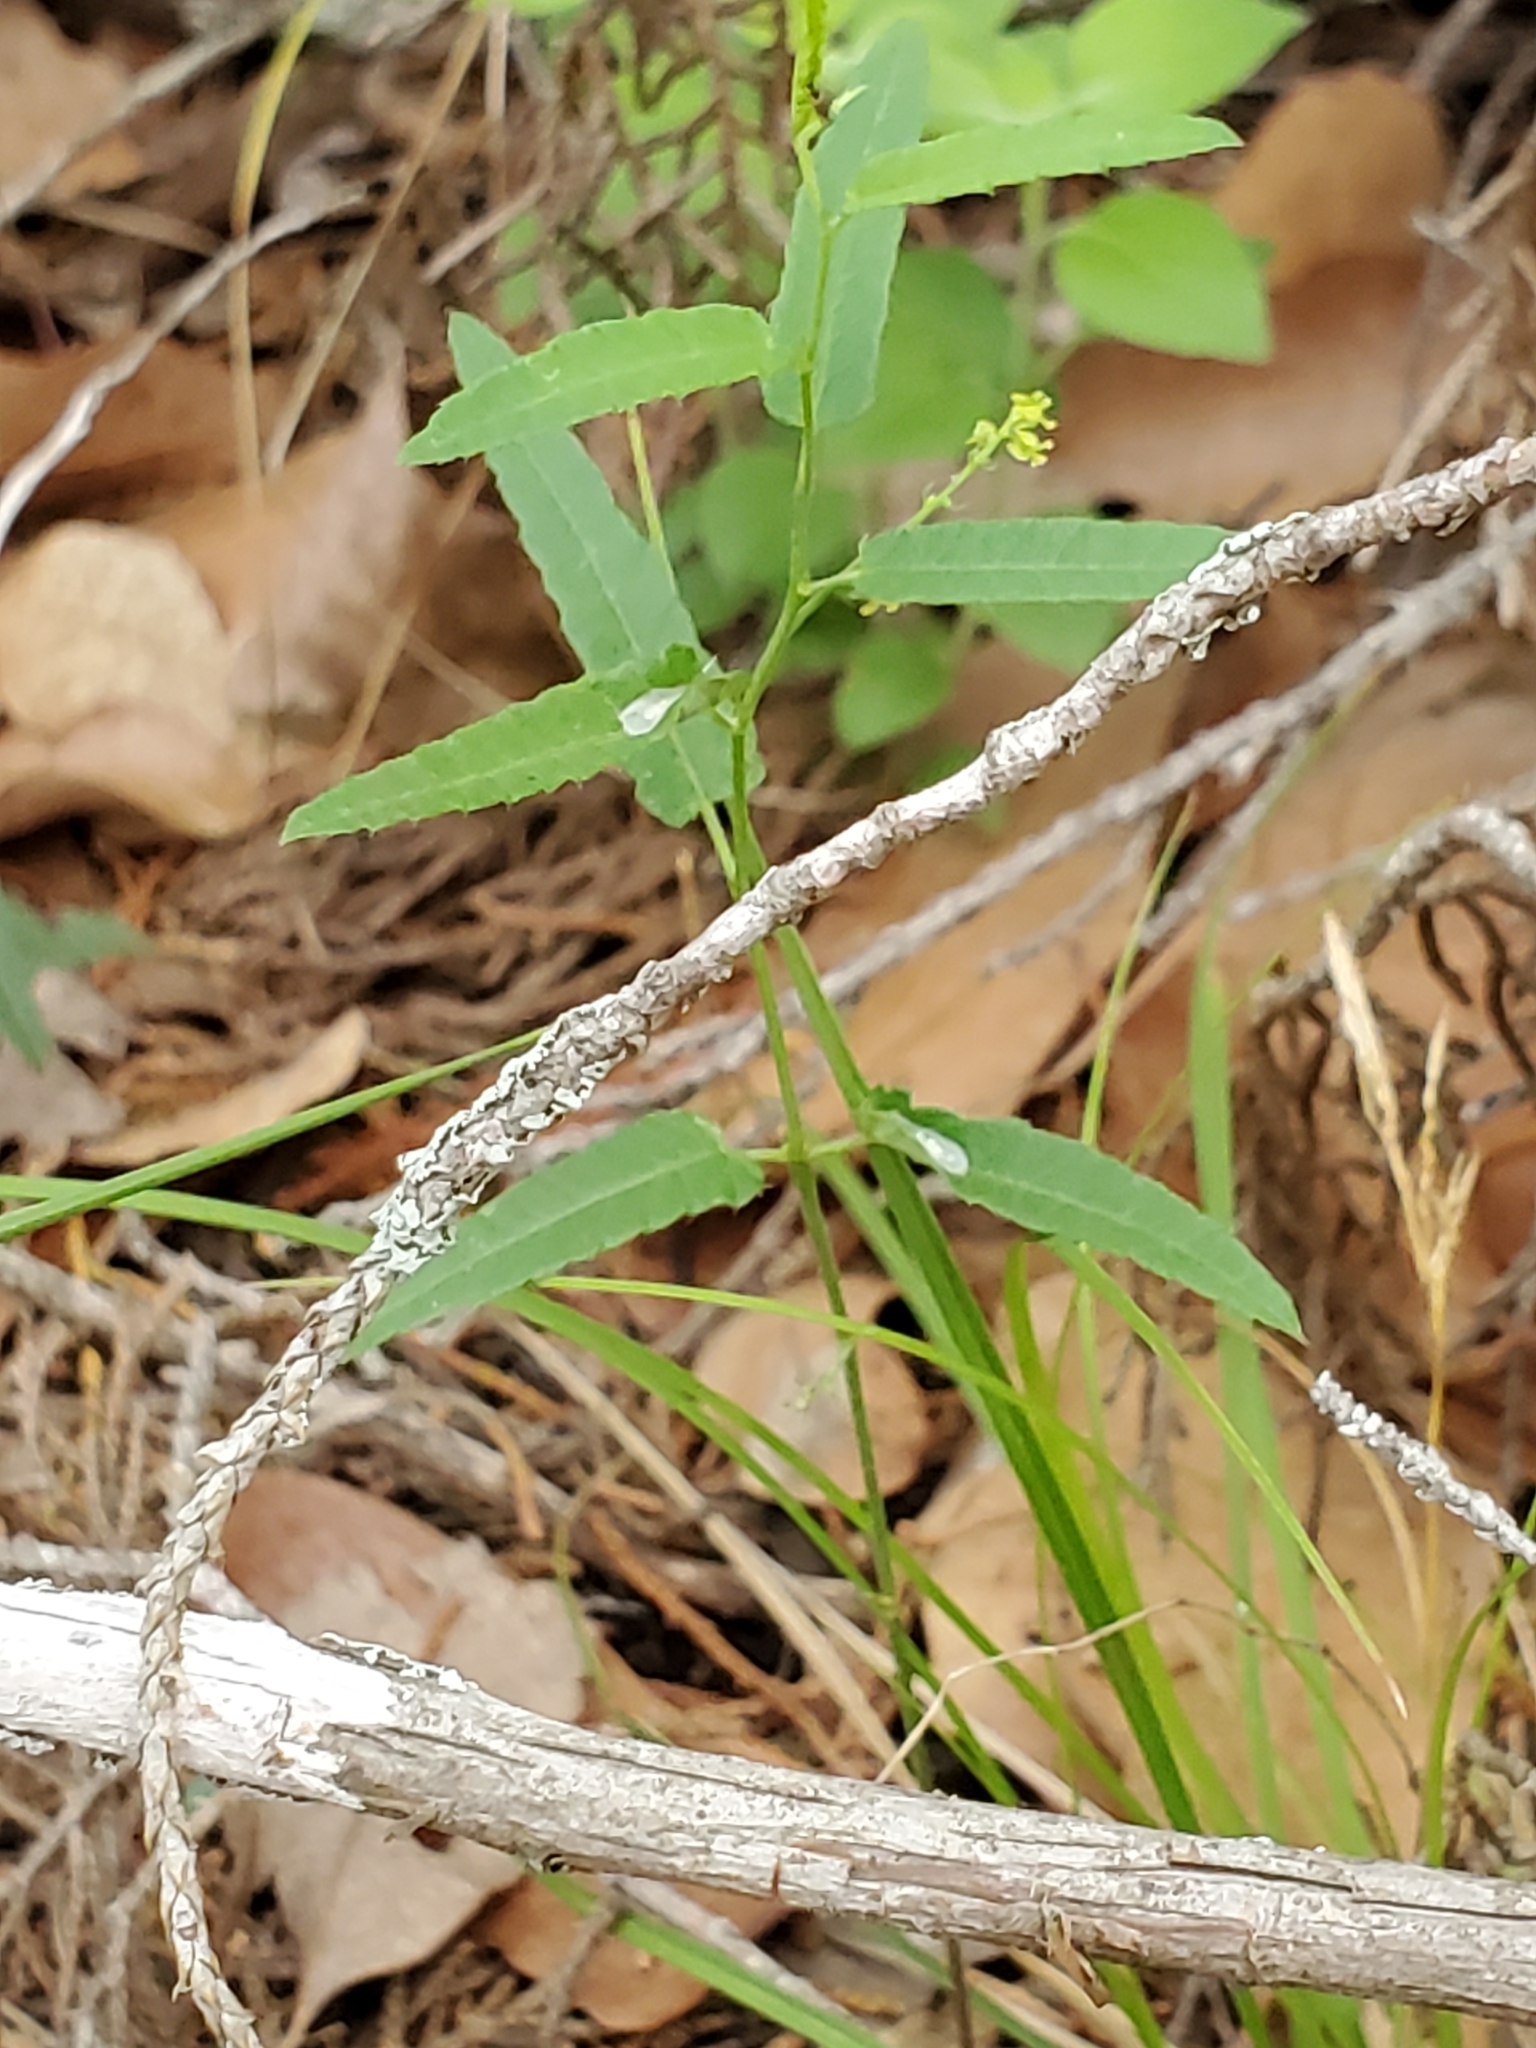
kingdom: Plantae
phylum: Tracheophyta
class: Magnoliopsida
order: Malpighiales
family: Euphorbiaceae
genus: Tragia
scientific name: Tragia ramosa
